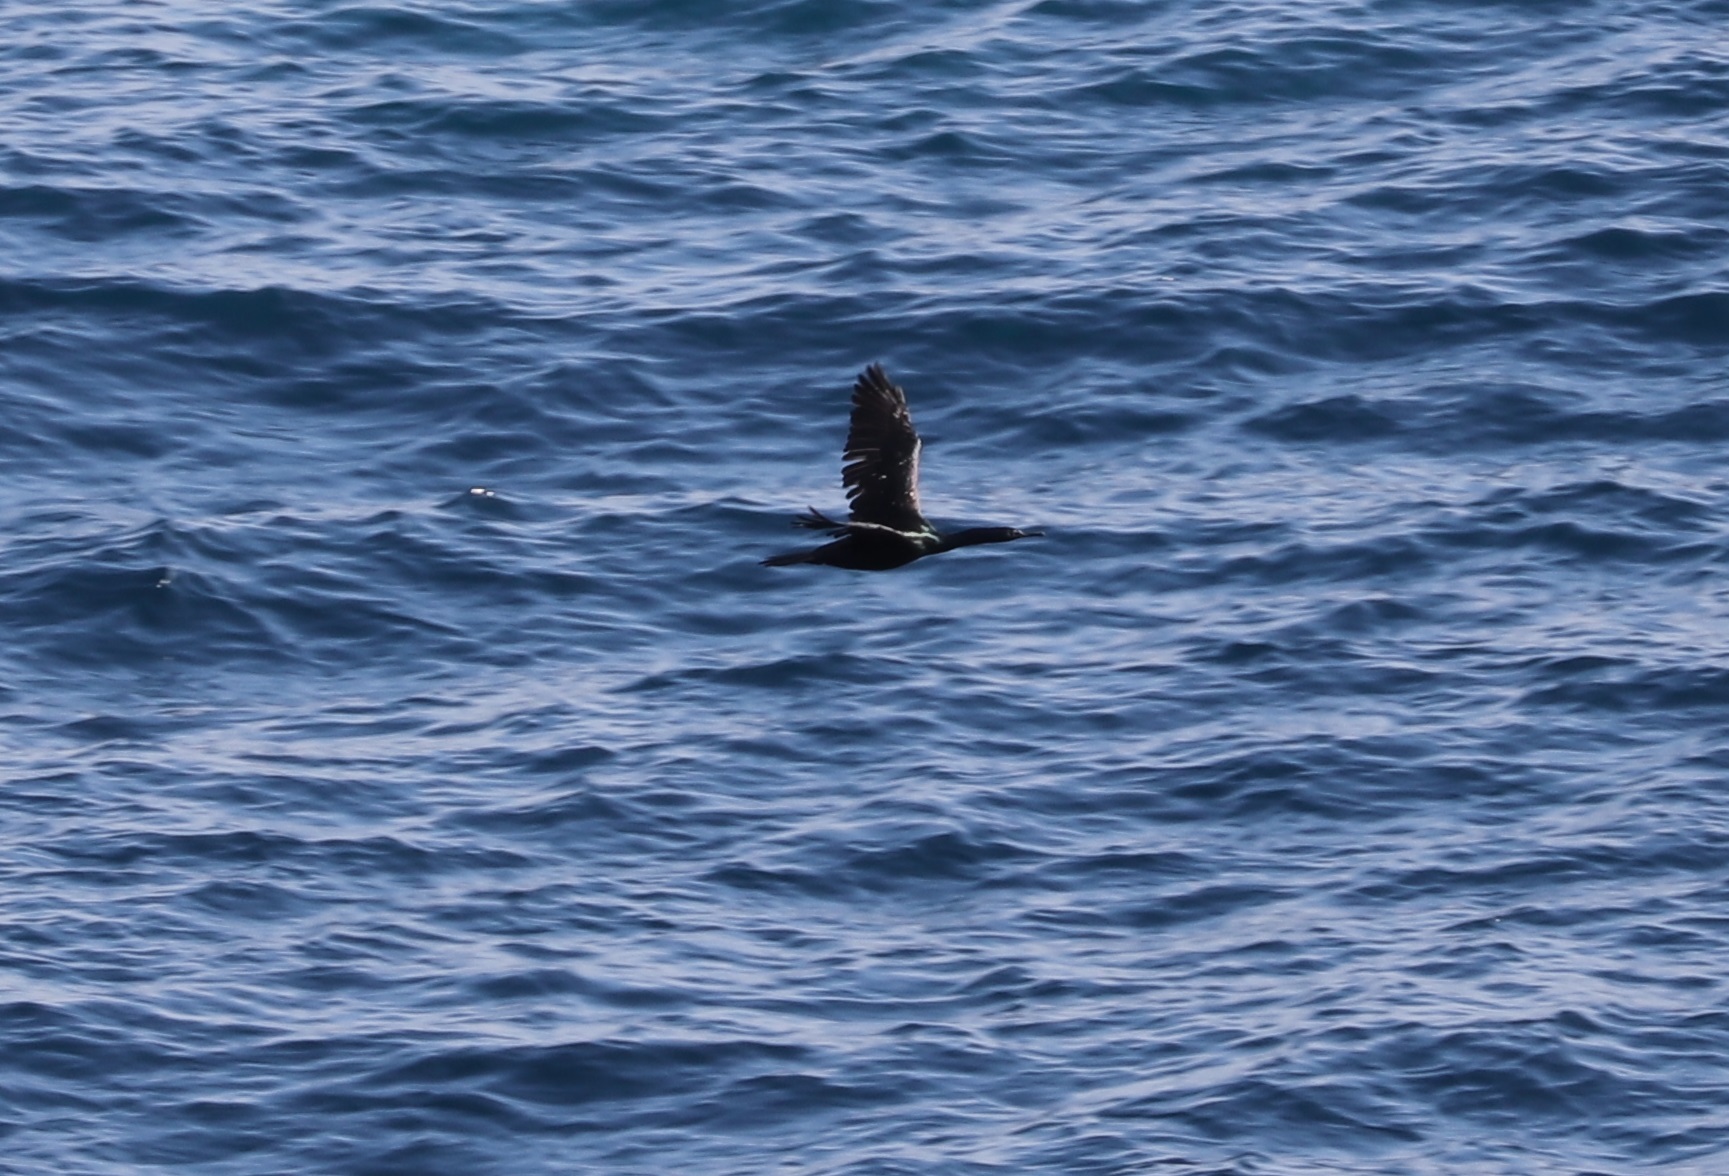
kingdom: Animalia
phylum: Chordata
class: Aves
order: Suliformes
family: Phalacrocoracidae
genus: Phalacrocorax
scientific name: Phalacrocorax pelagicus
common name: Pelagic cormorant
